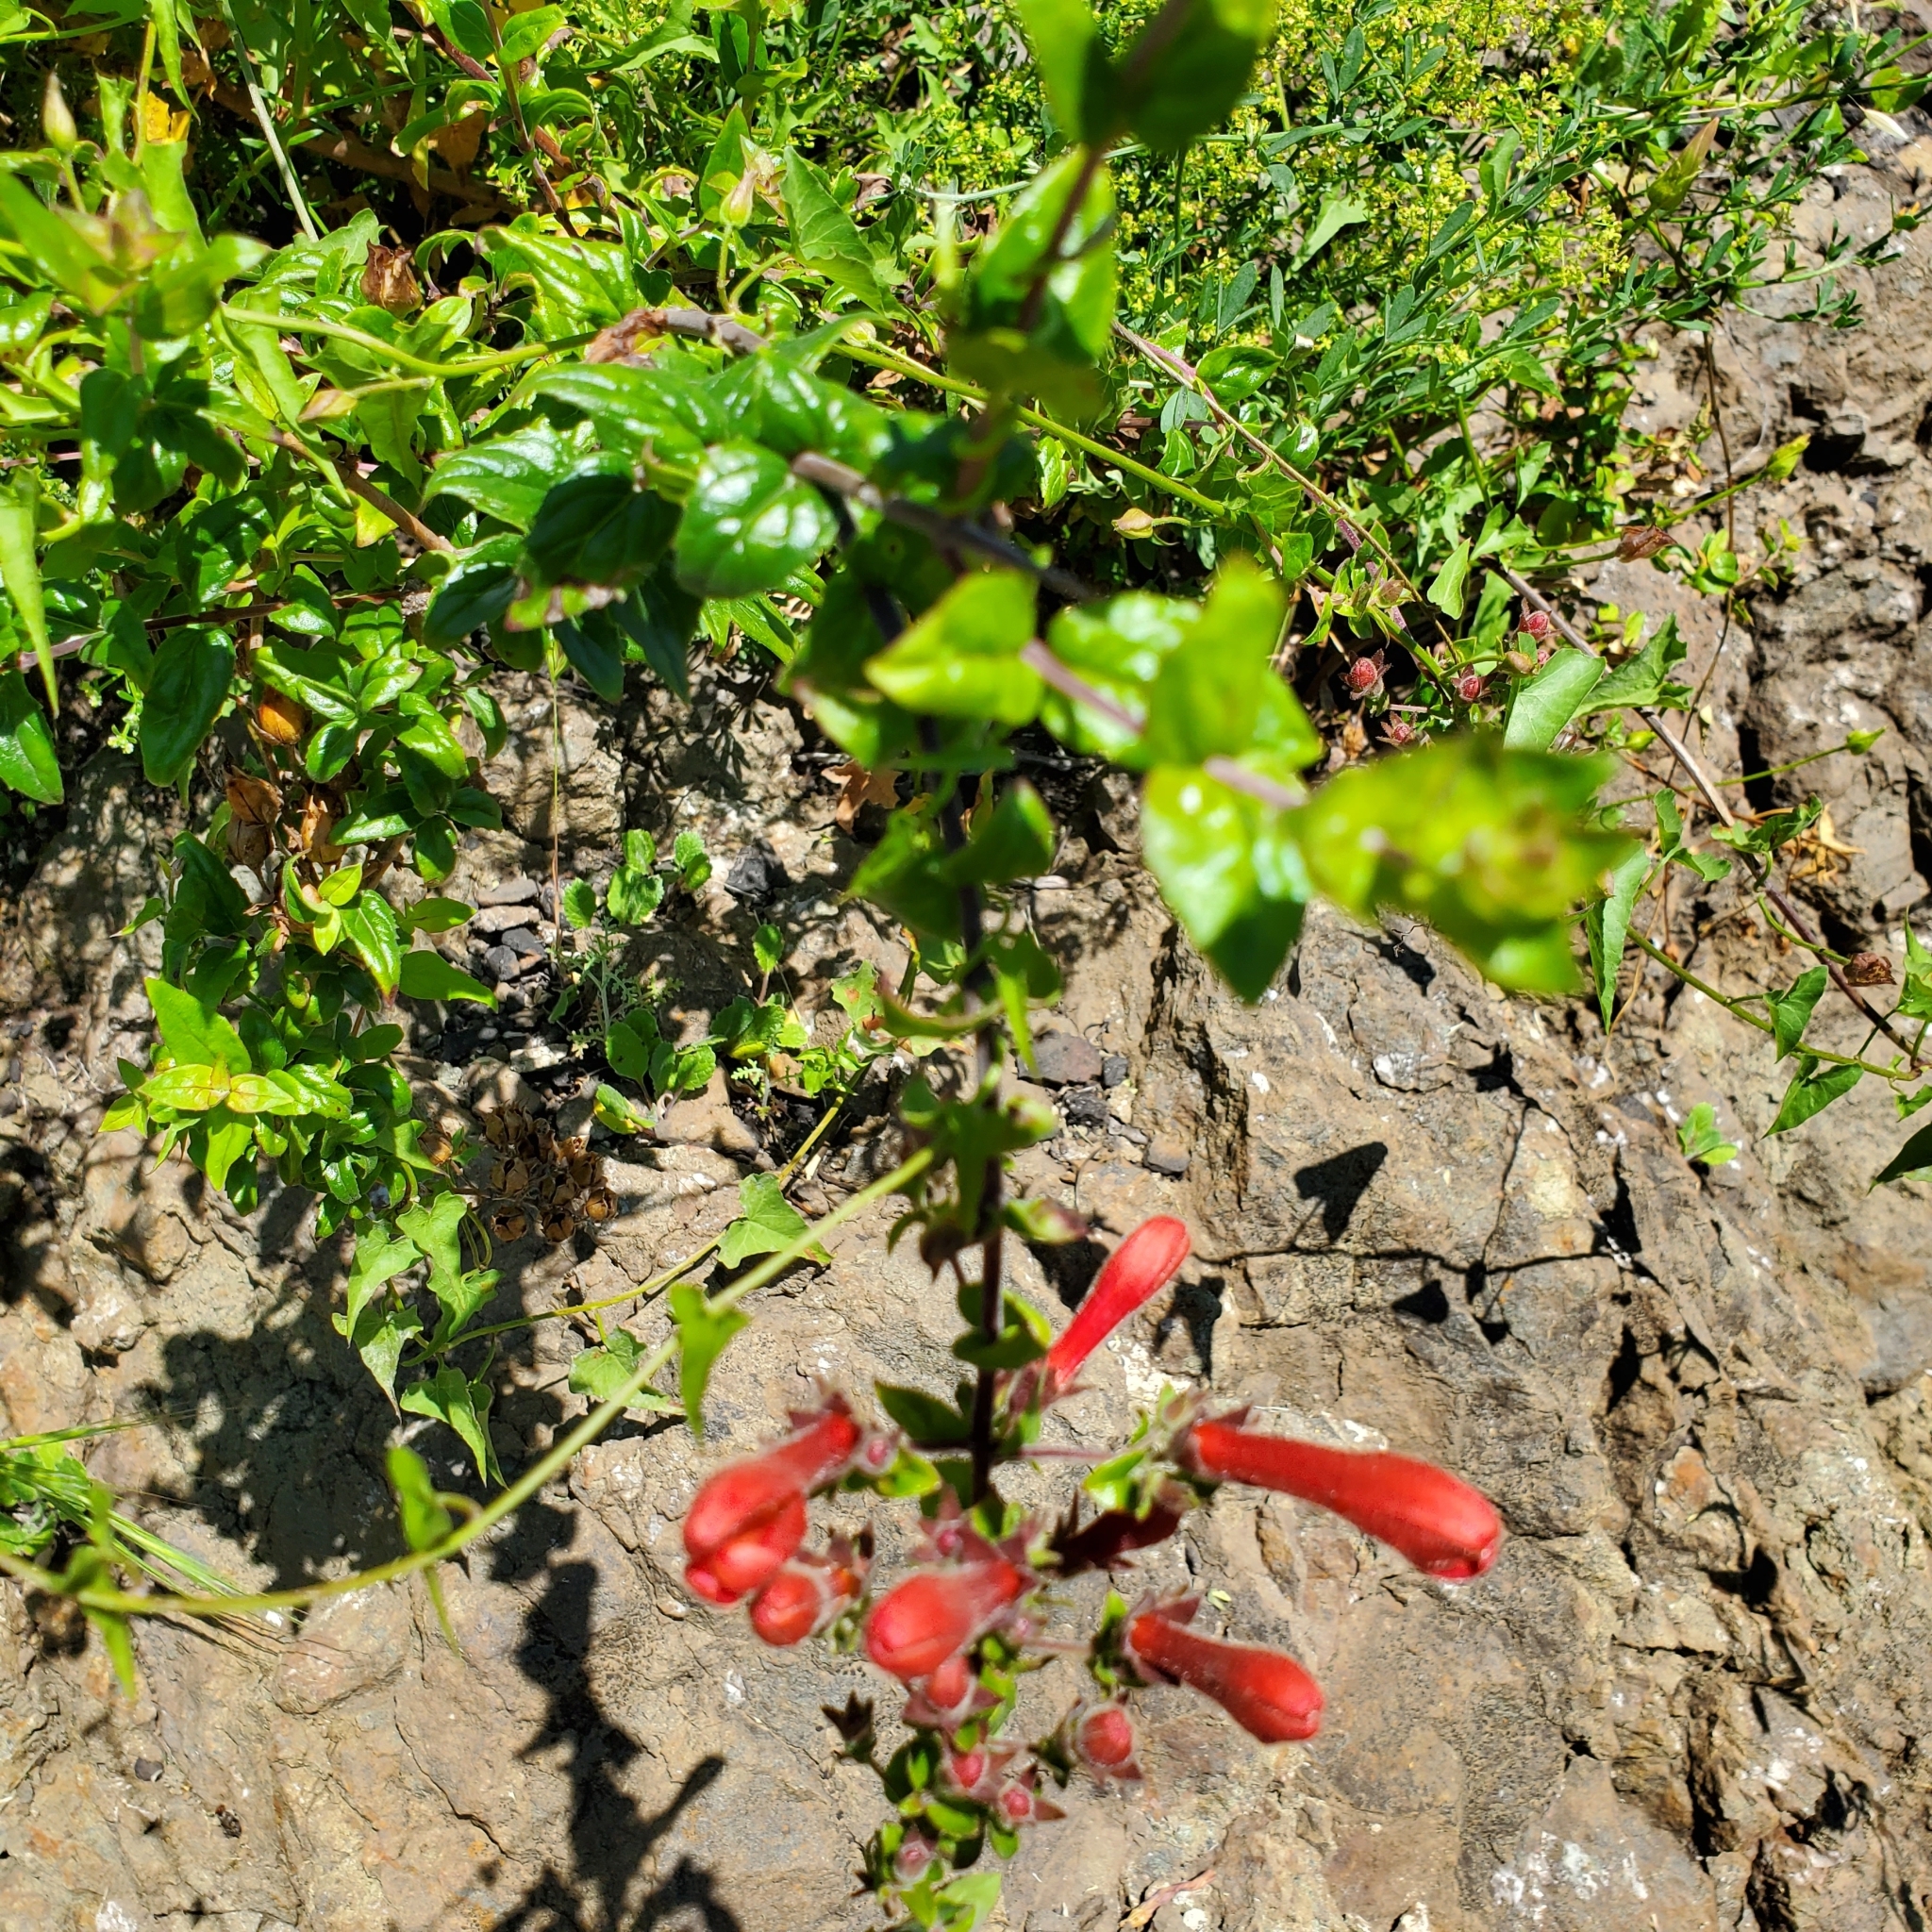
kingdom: Plantae
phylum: Tracheophyta
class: Magnoliopsida
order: Lamiales
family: Plantaginaceae
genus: Keckiella
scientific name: Keckiella cordifolia
